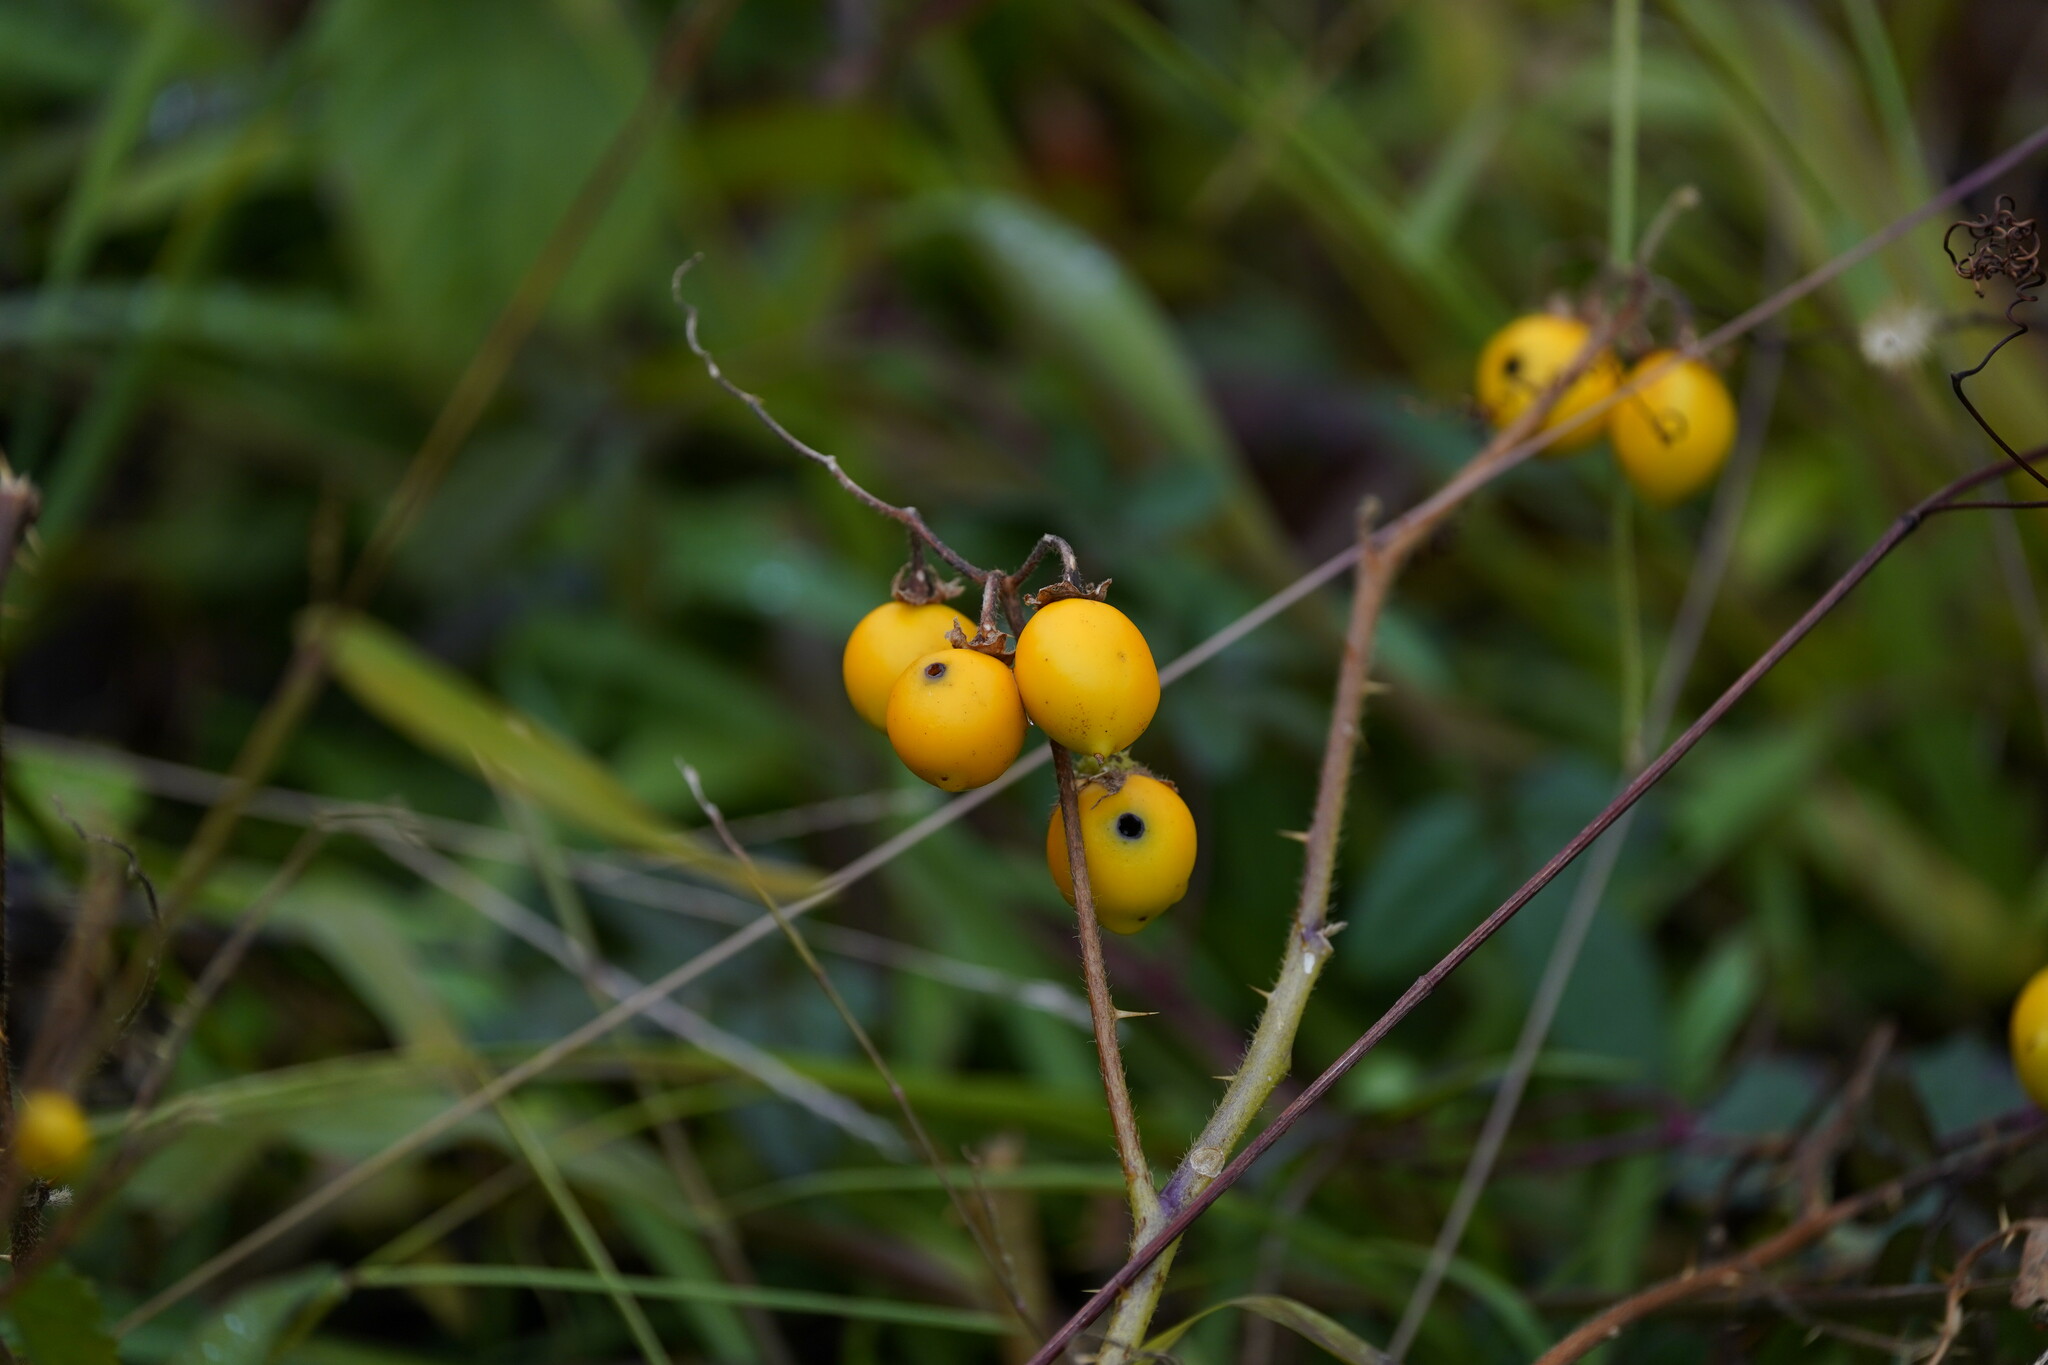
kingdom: Plantae
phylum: Tracheophyta
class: Magnoliopsida
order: Solanales
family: Solanaceae
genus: Solanum
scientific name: Solanum carolinense
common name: Horse-nettle
